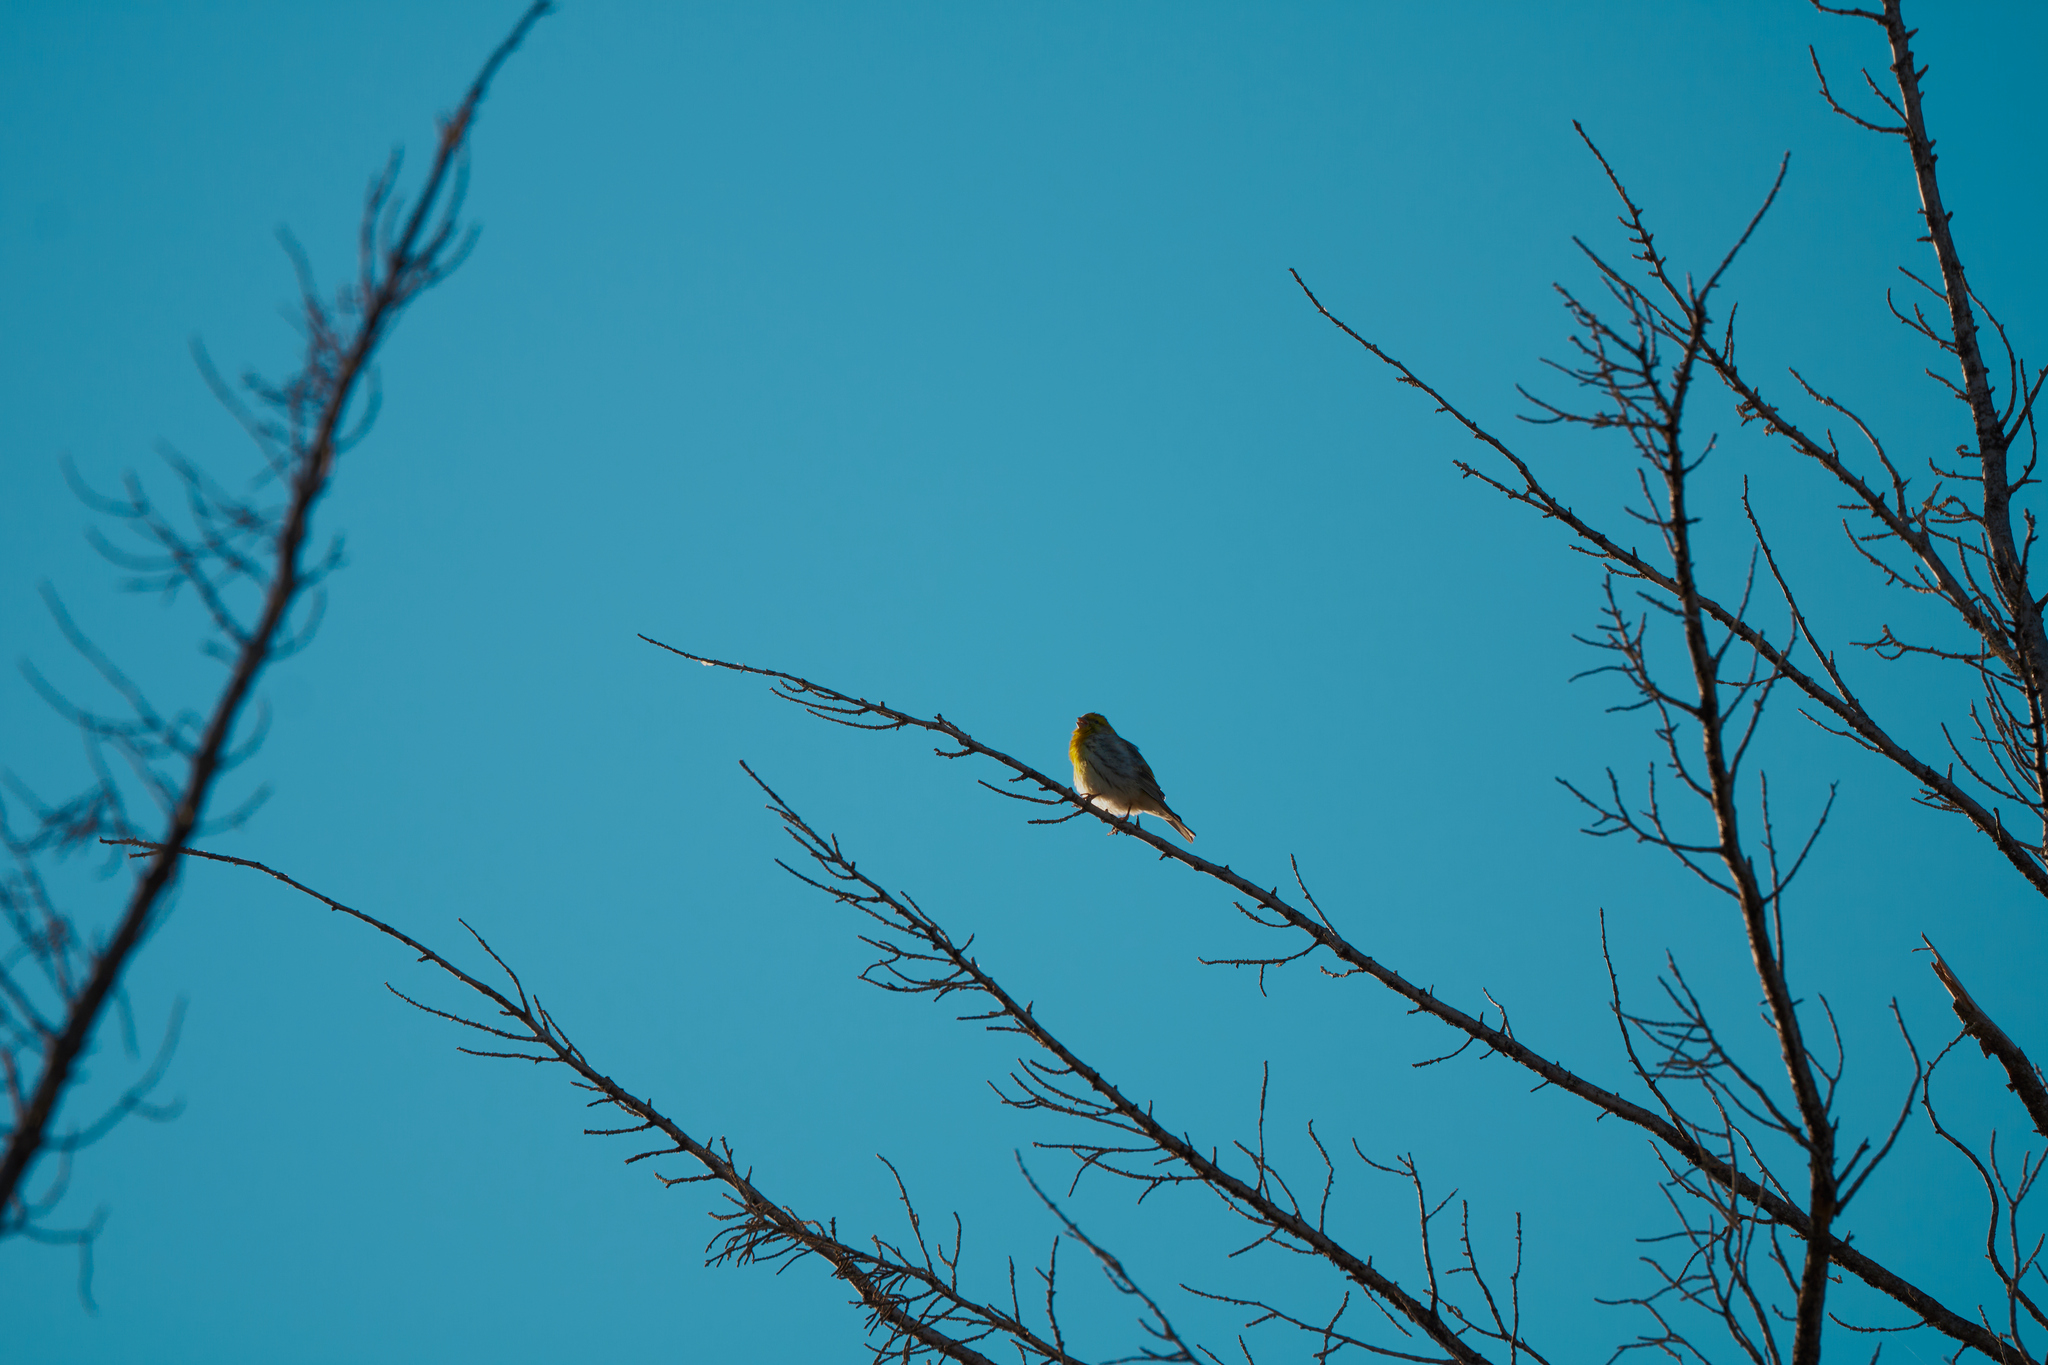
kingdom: Animalia
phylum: Chordata
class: Aves
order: Passeriformes
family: Fringillidae
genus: Serinus
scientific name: Serinus serinus
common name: European serin
